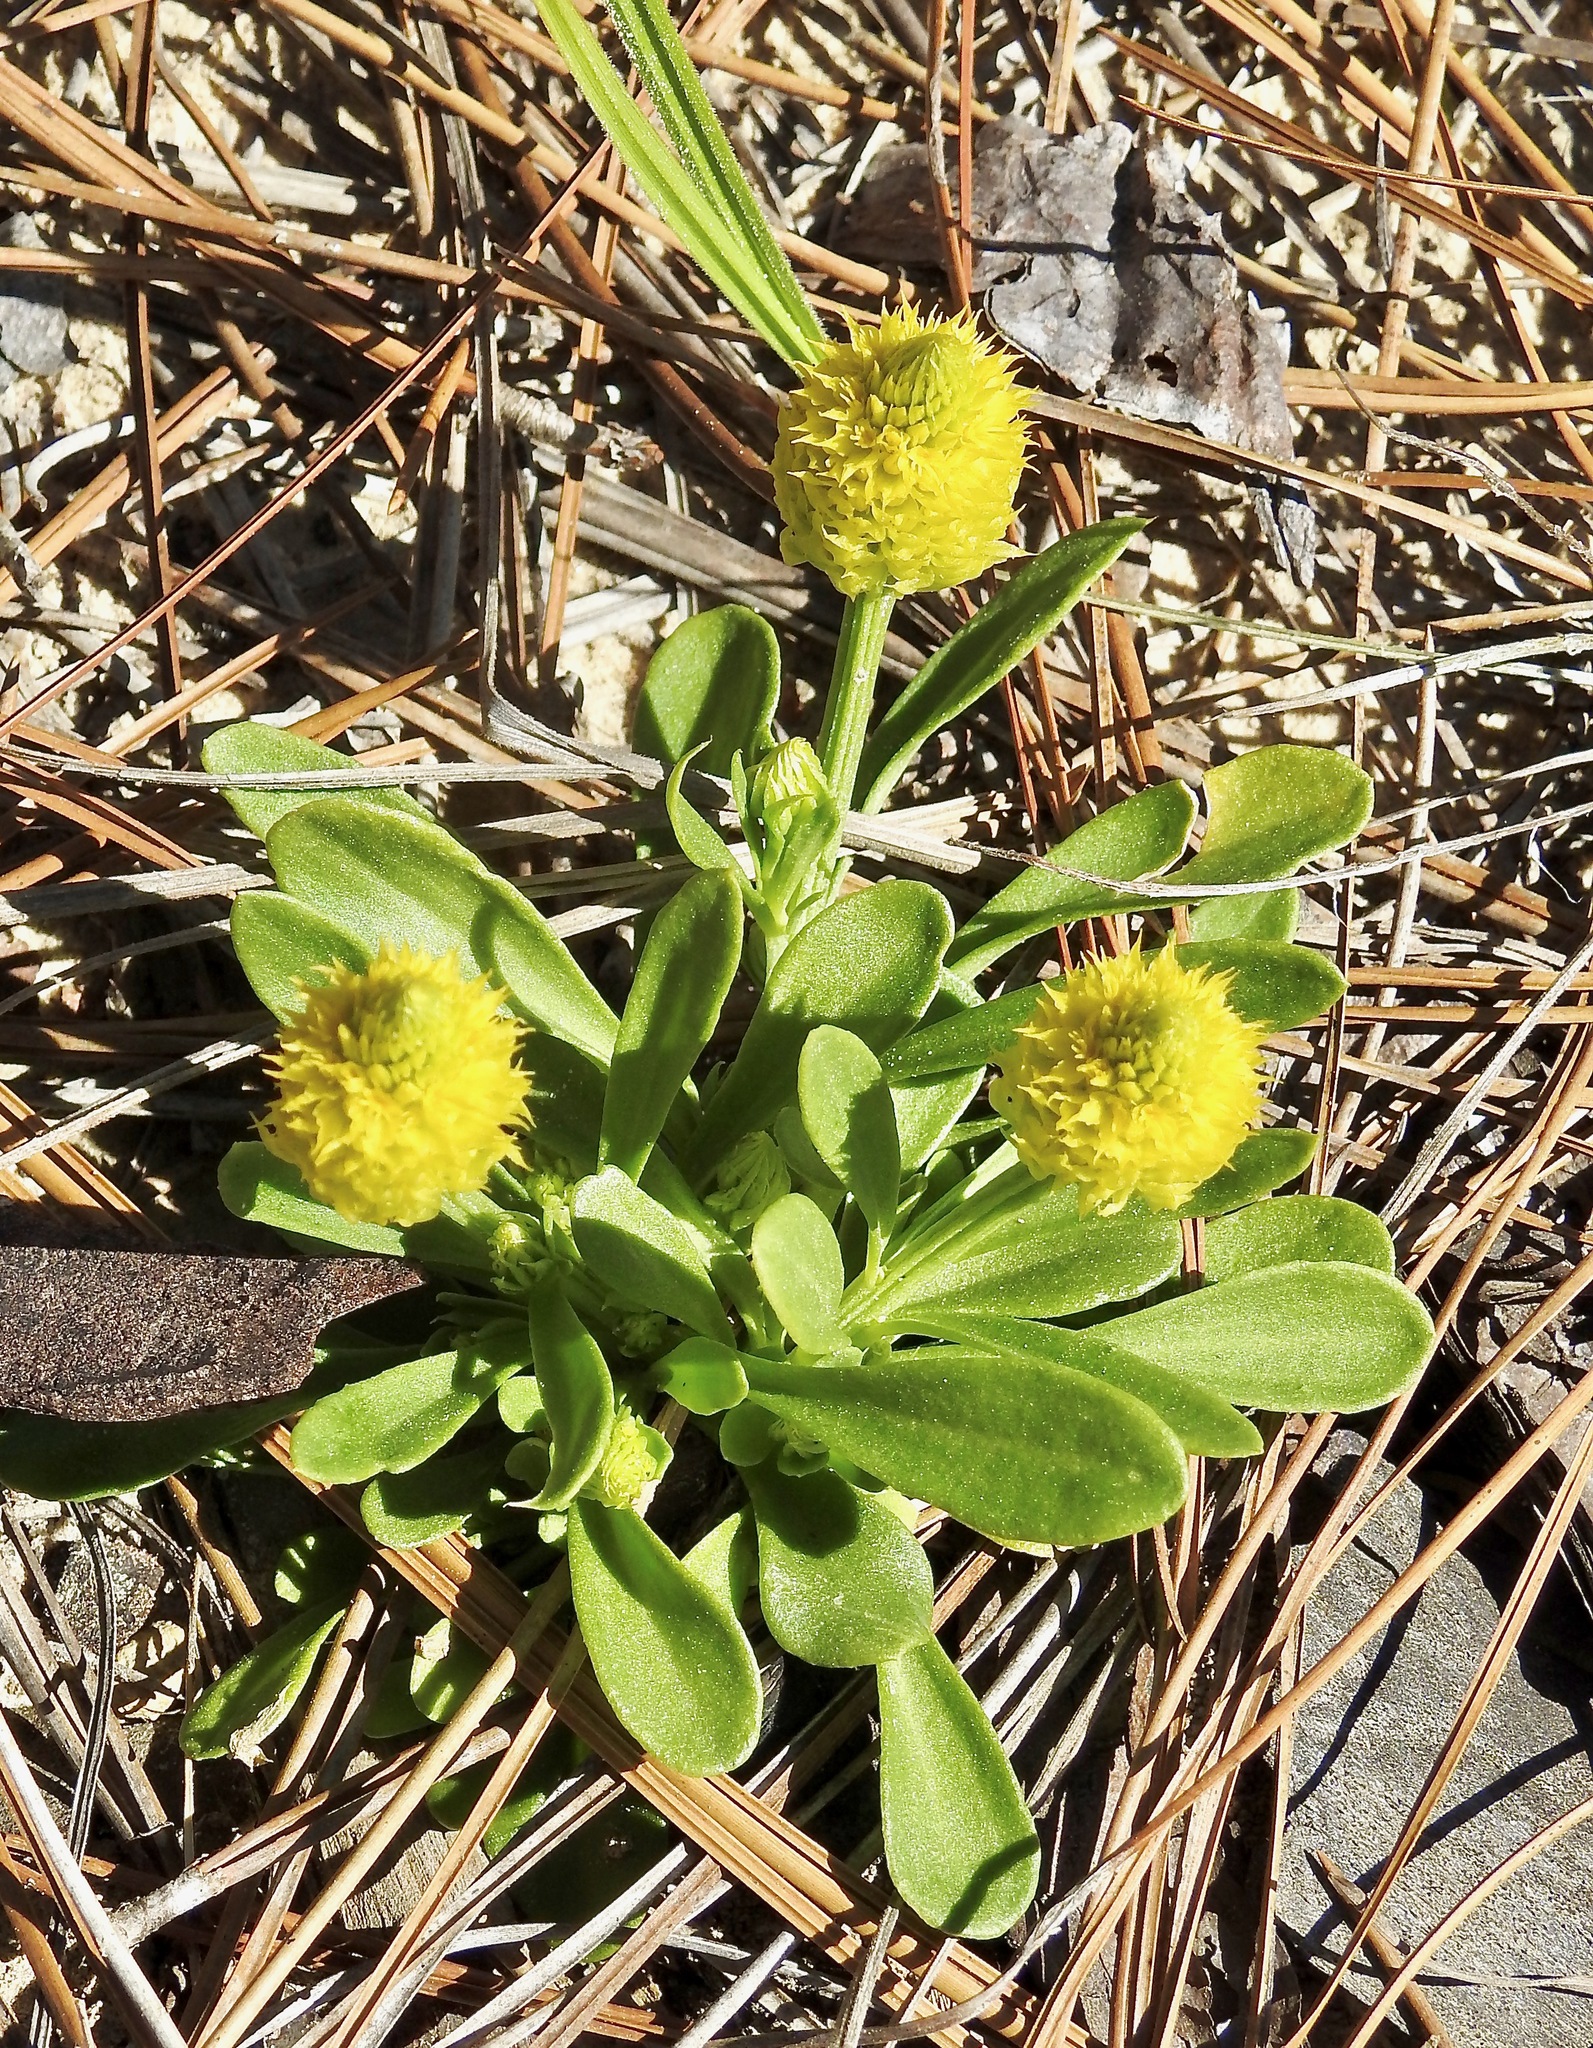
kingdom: Plantae
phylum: Tracheophyta
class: Magnoliopsida
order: Fabales
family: Polygalaceae
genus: Polygala
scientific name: Polygala nana
